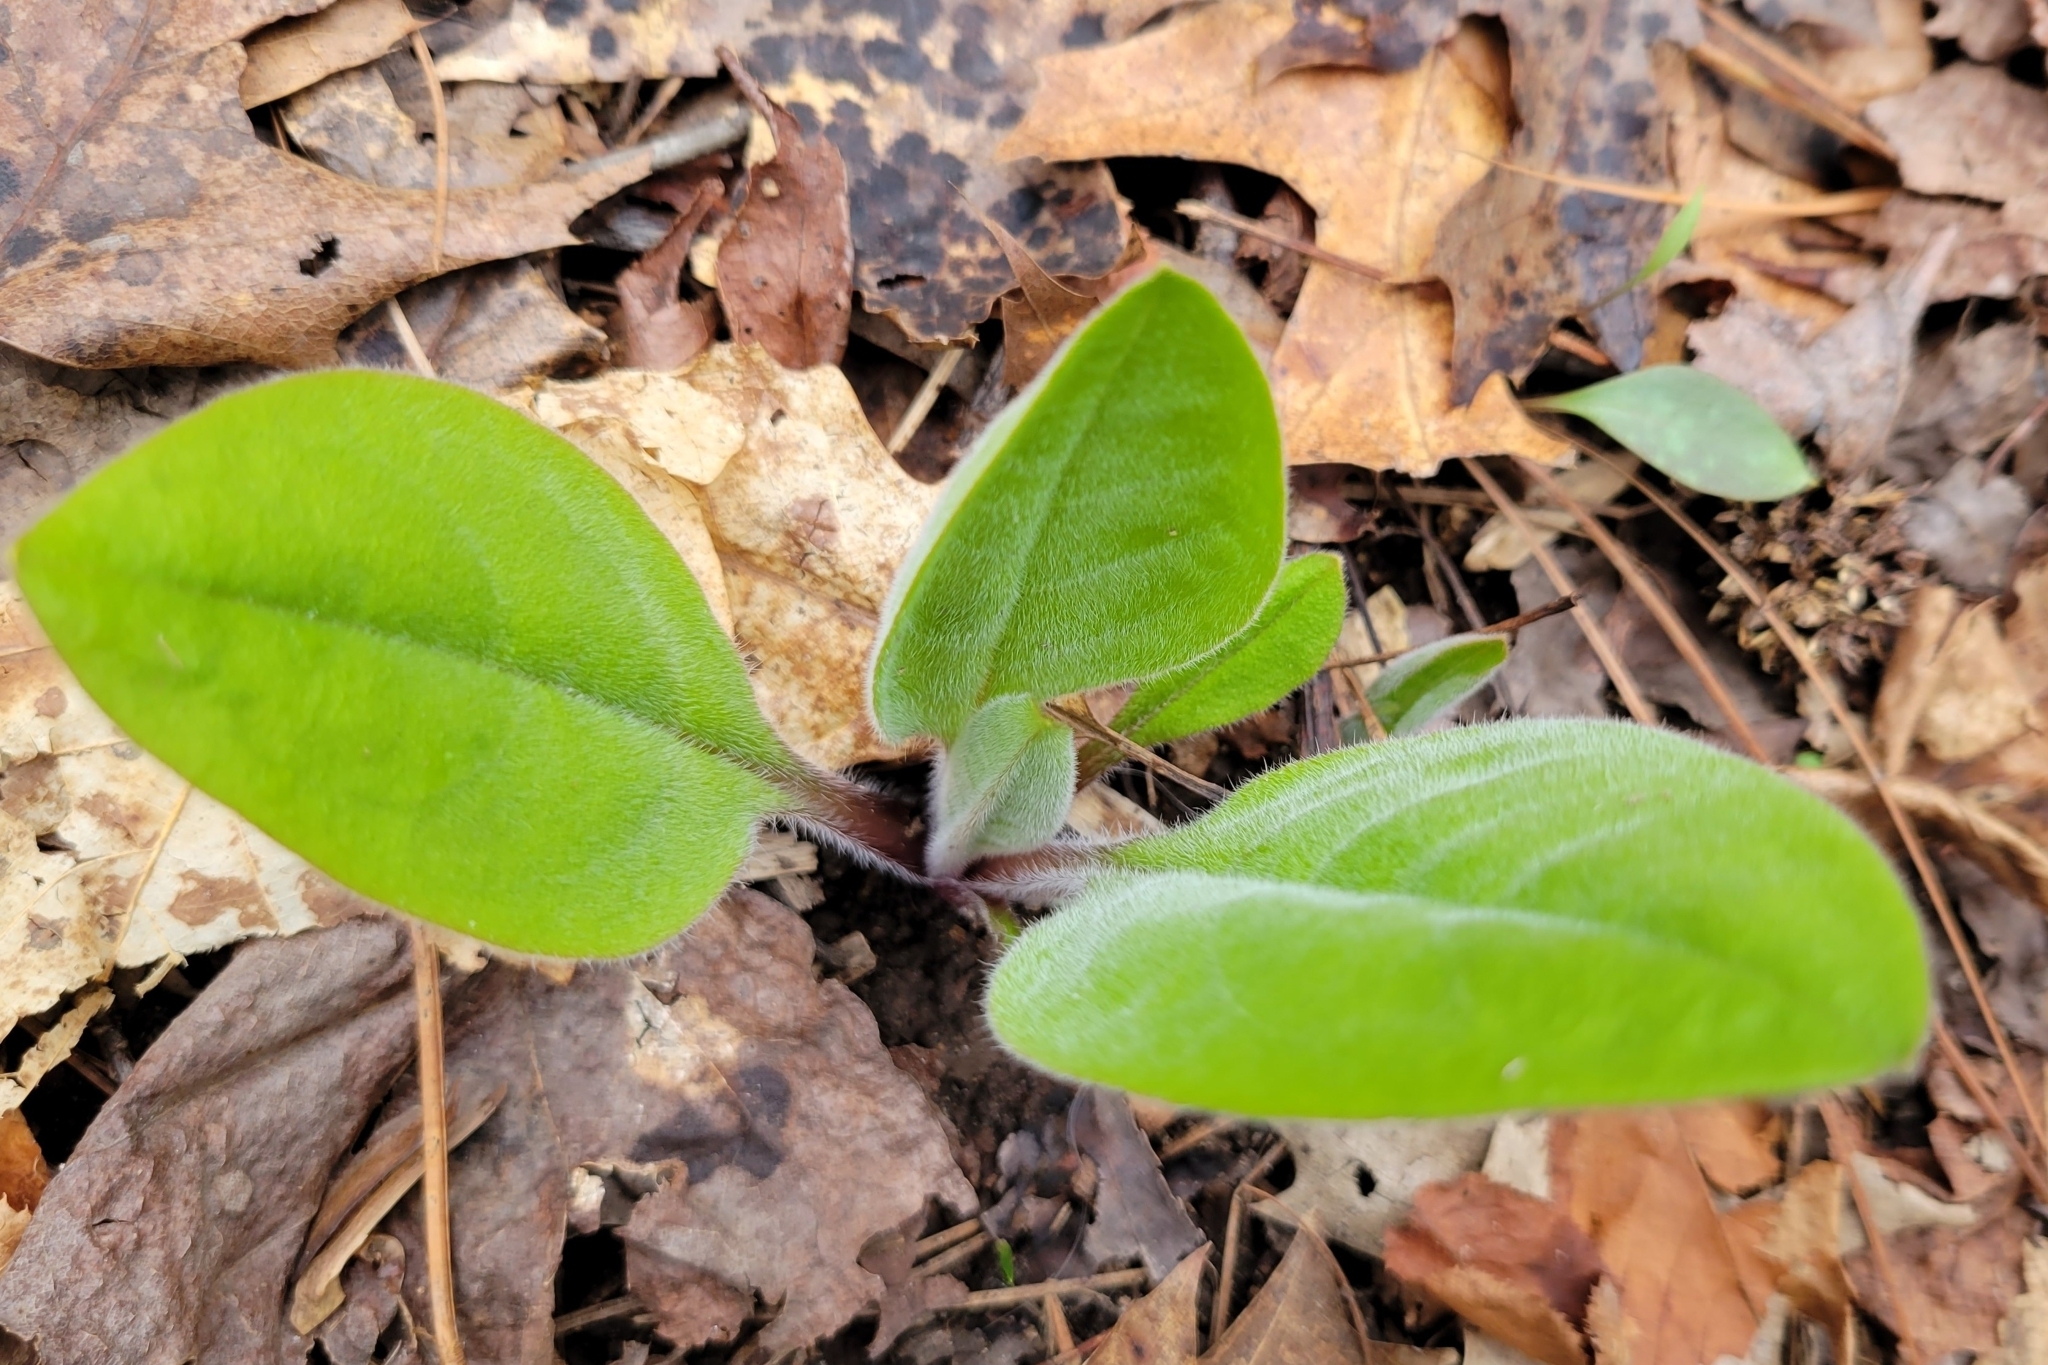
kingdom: Plantae
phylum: Tracheophyta
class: Magnoliopsida
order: Boraginales
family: Boraginaceae
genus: Andersonglossum
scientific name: Andersonglossum virginianum
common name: Wild comfrey
